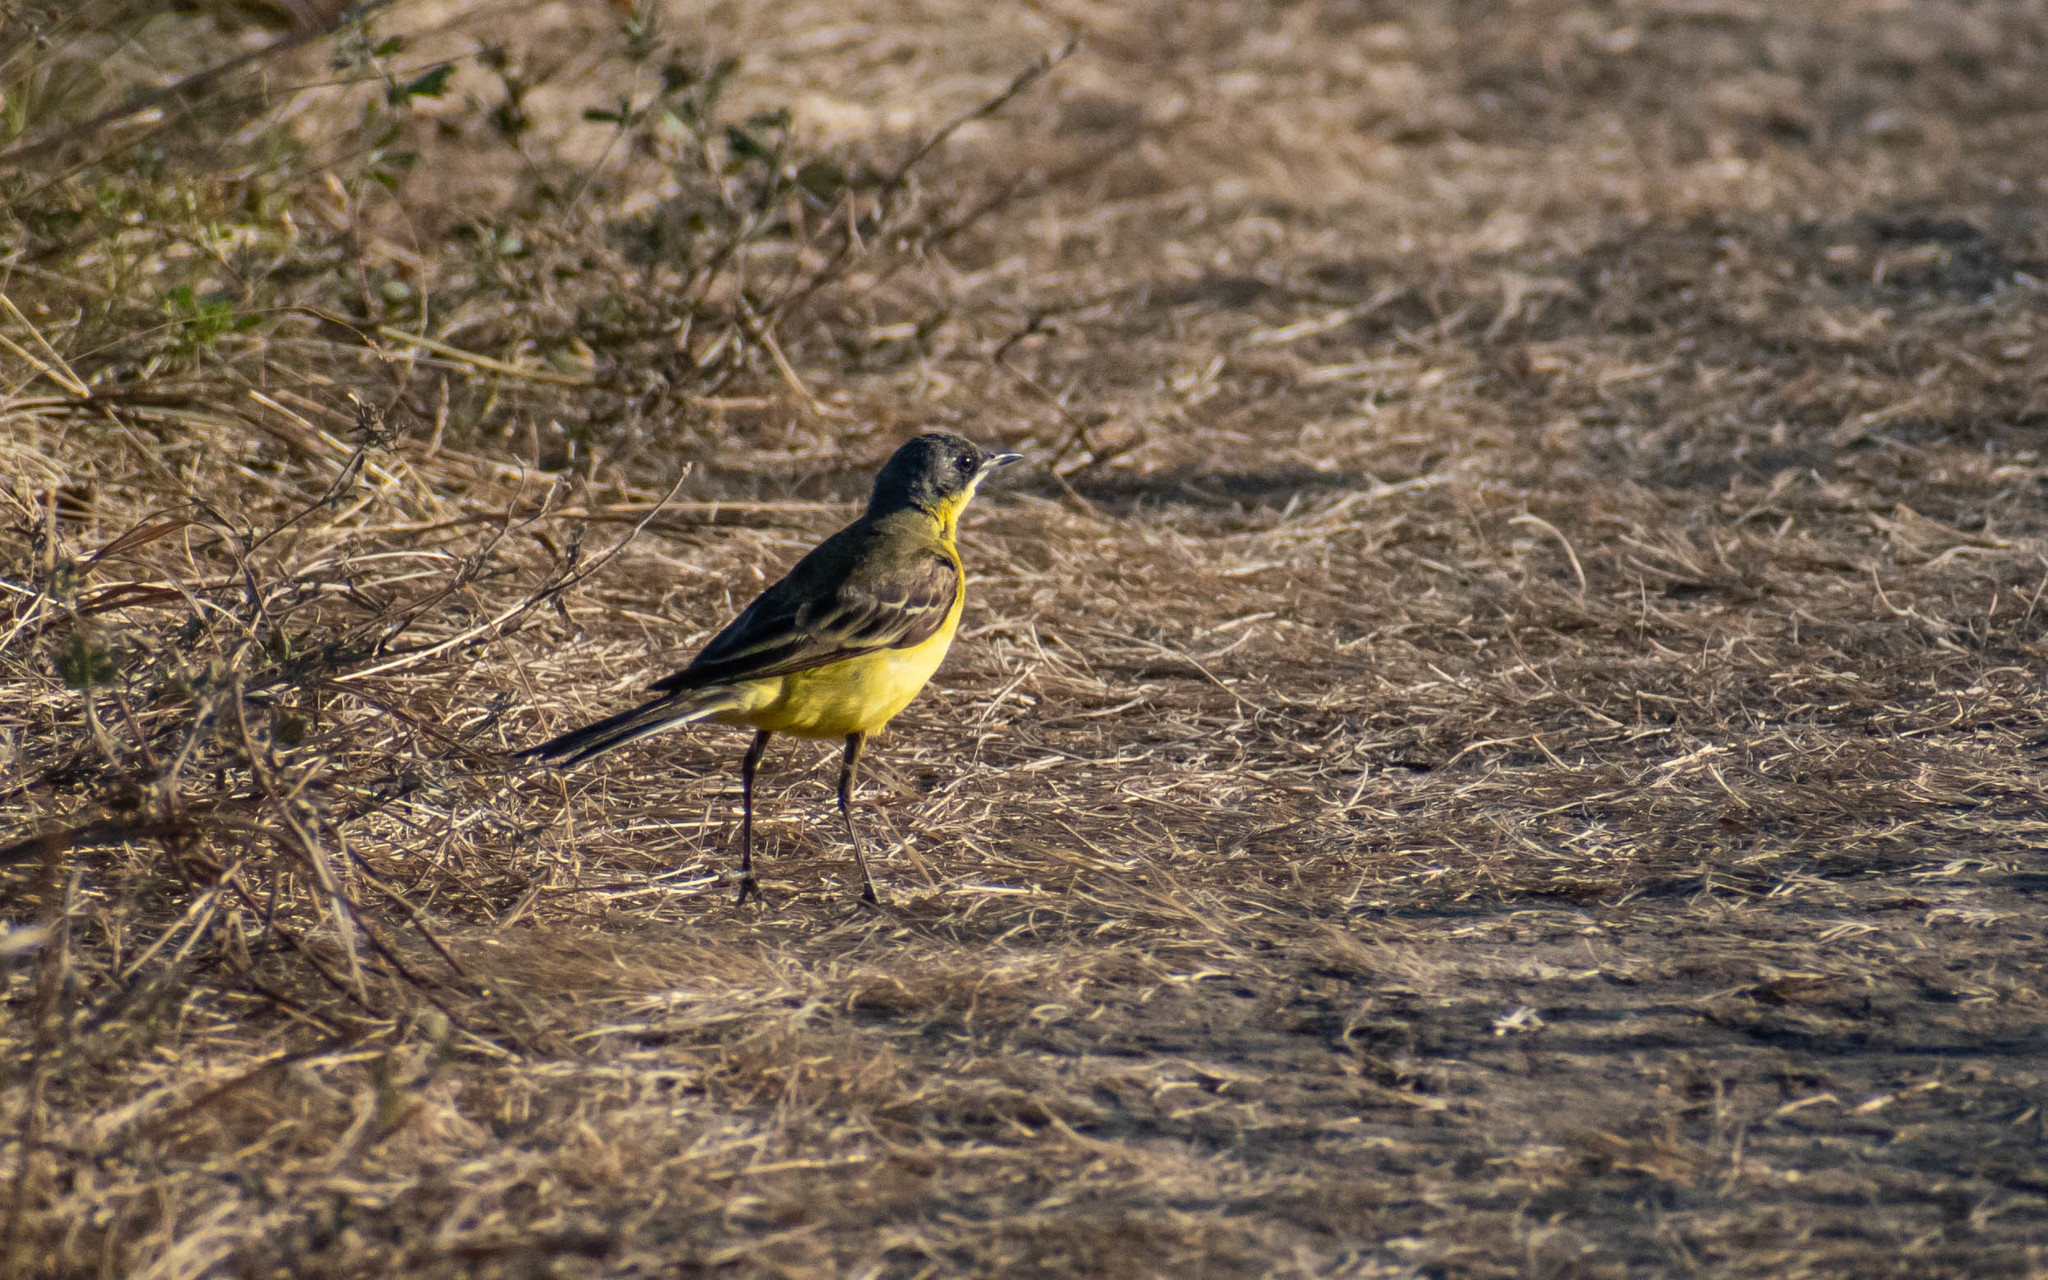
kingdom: Animalia
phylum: Chordata
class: Aves
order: Passeriformes
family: Motacillidae
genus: Motacilla
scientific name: Motacilla flava
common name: Western yellow wagtail
